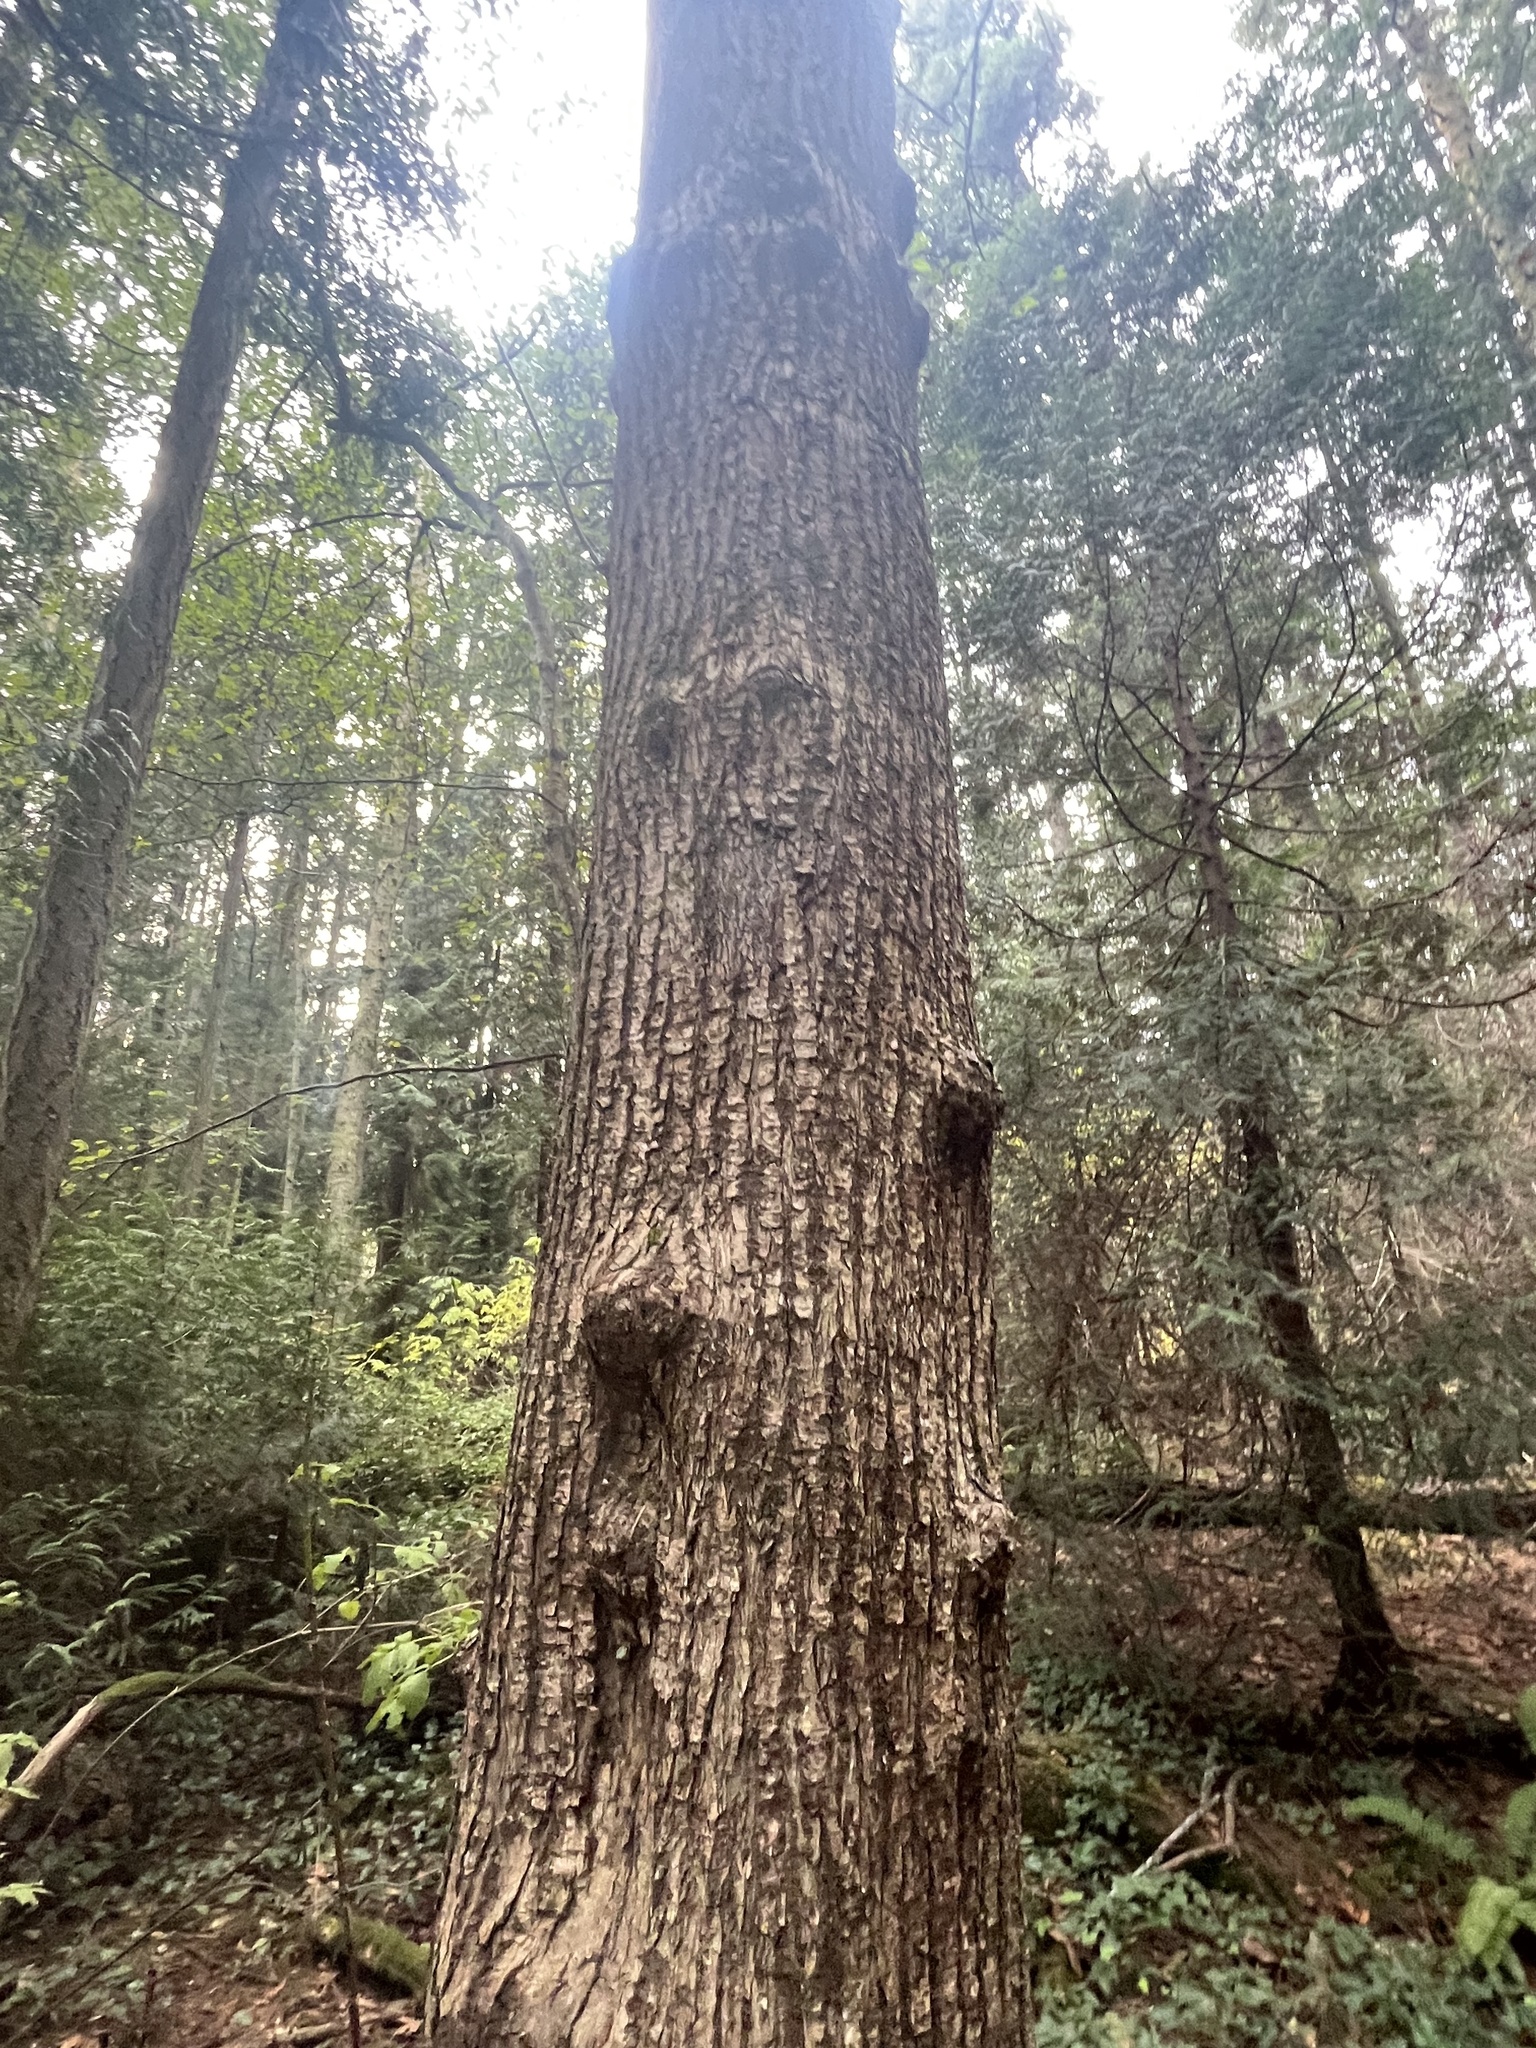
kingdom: Plantae
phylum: Tracheophyta
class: Magnoliopsida
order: Sapindales
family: Sapindaceae
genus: Acer
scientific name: Acer macrophyllum
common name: Oregon maple
